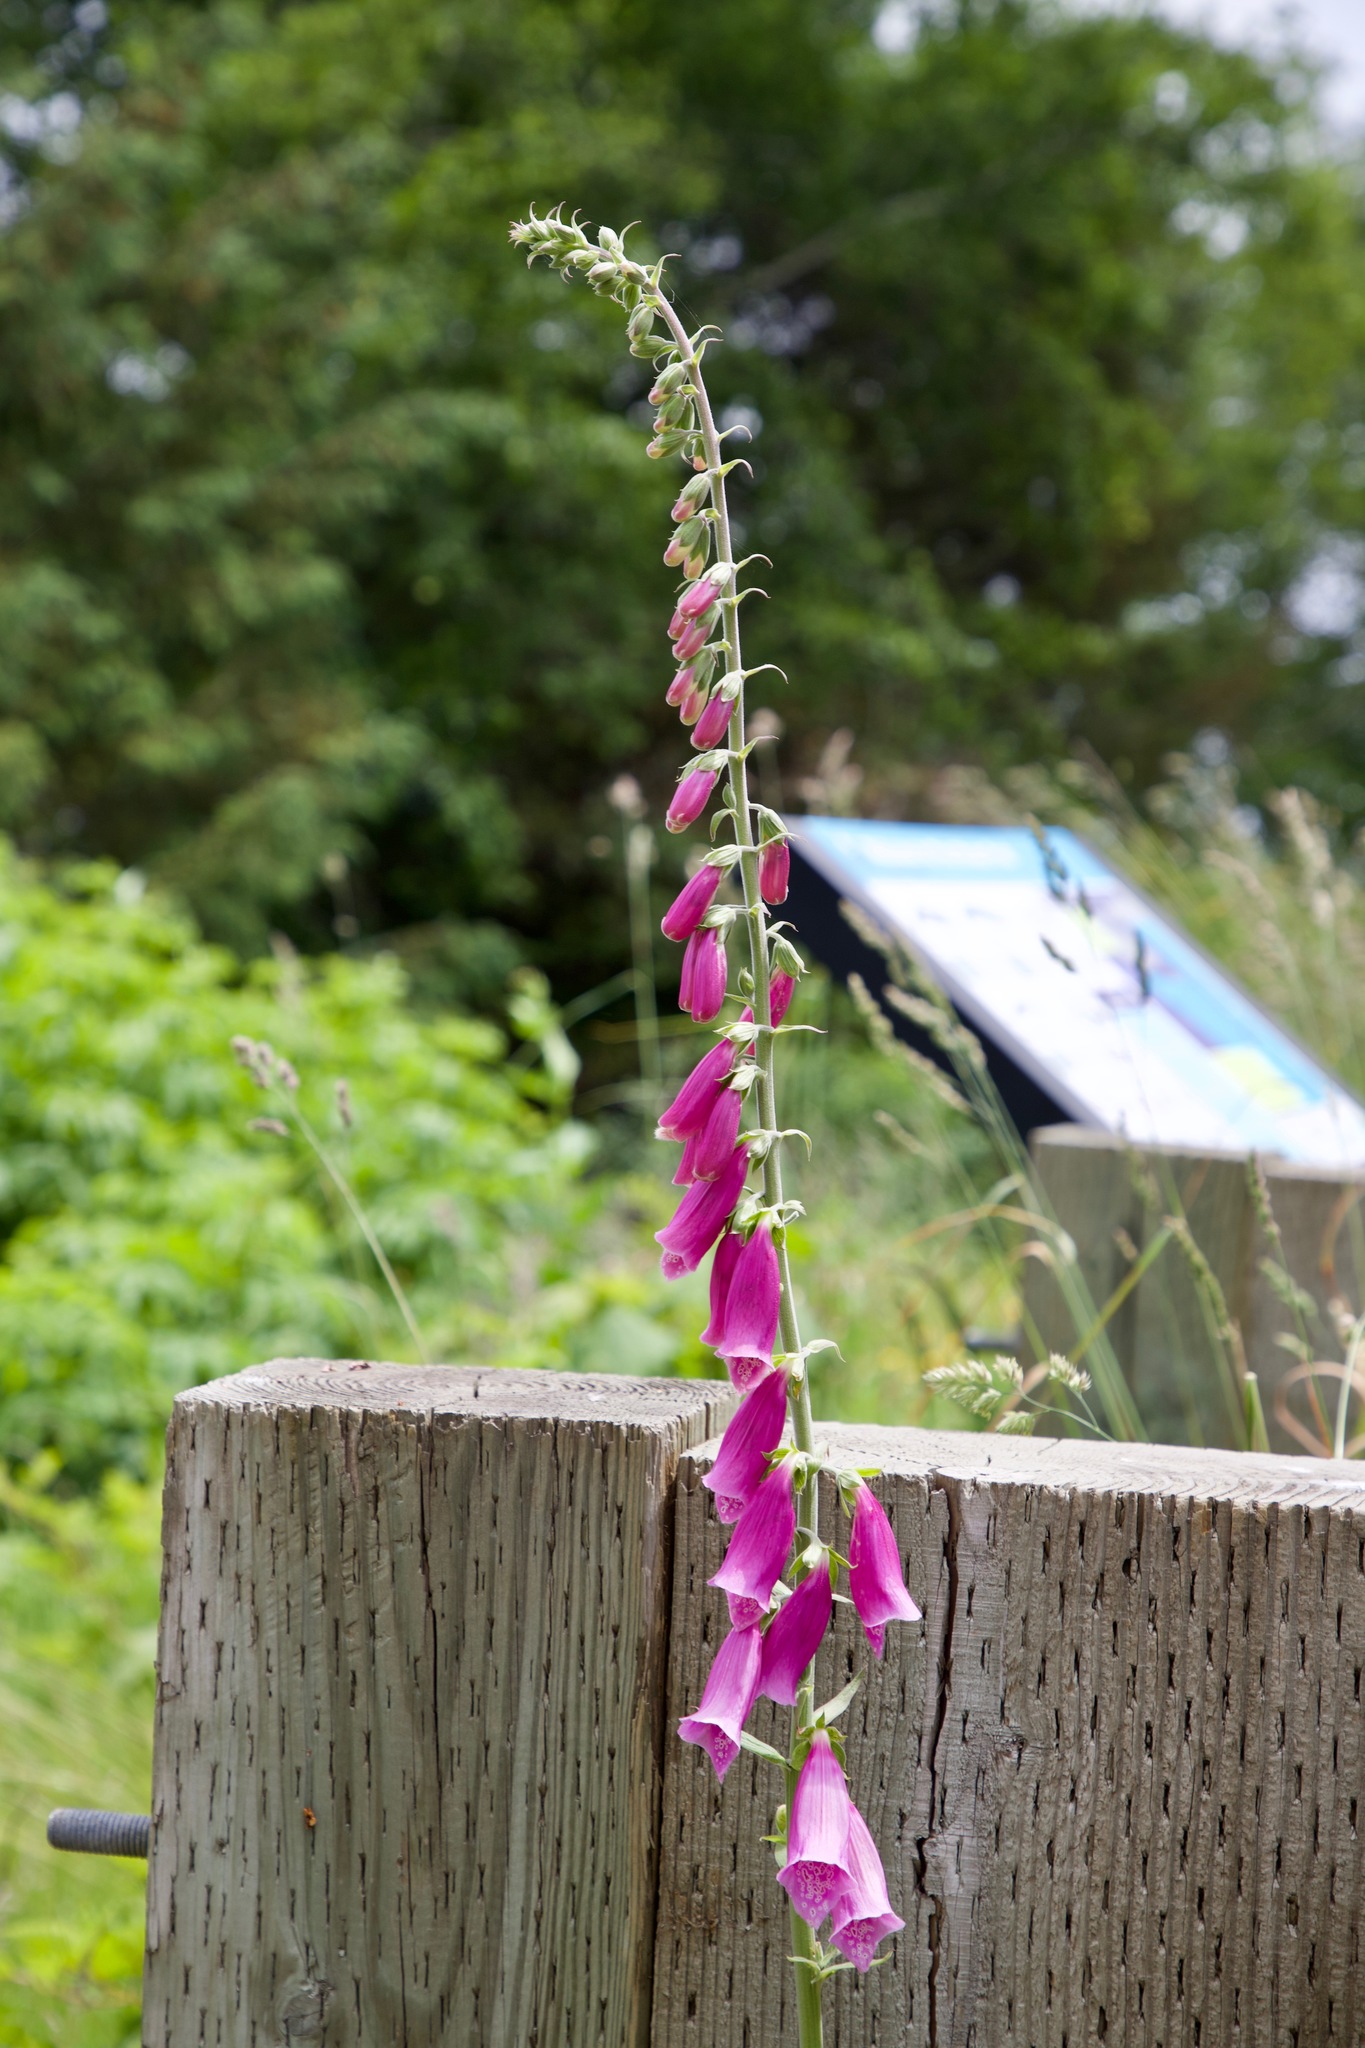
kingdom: Plantae
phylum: Tracheophyta
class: Magnoliopsida
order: Lamiales
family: Plantaginaceae
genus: Digitalis
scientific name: Digitalis purpurea
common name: Foxglove
